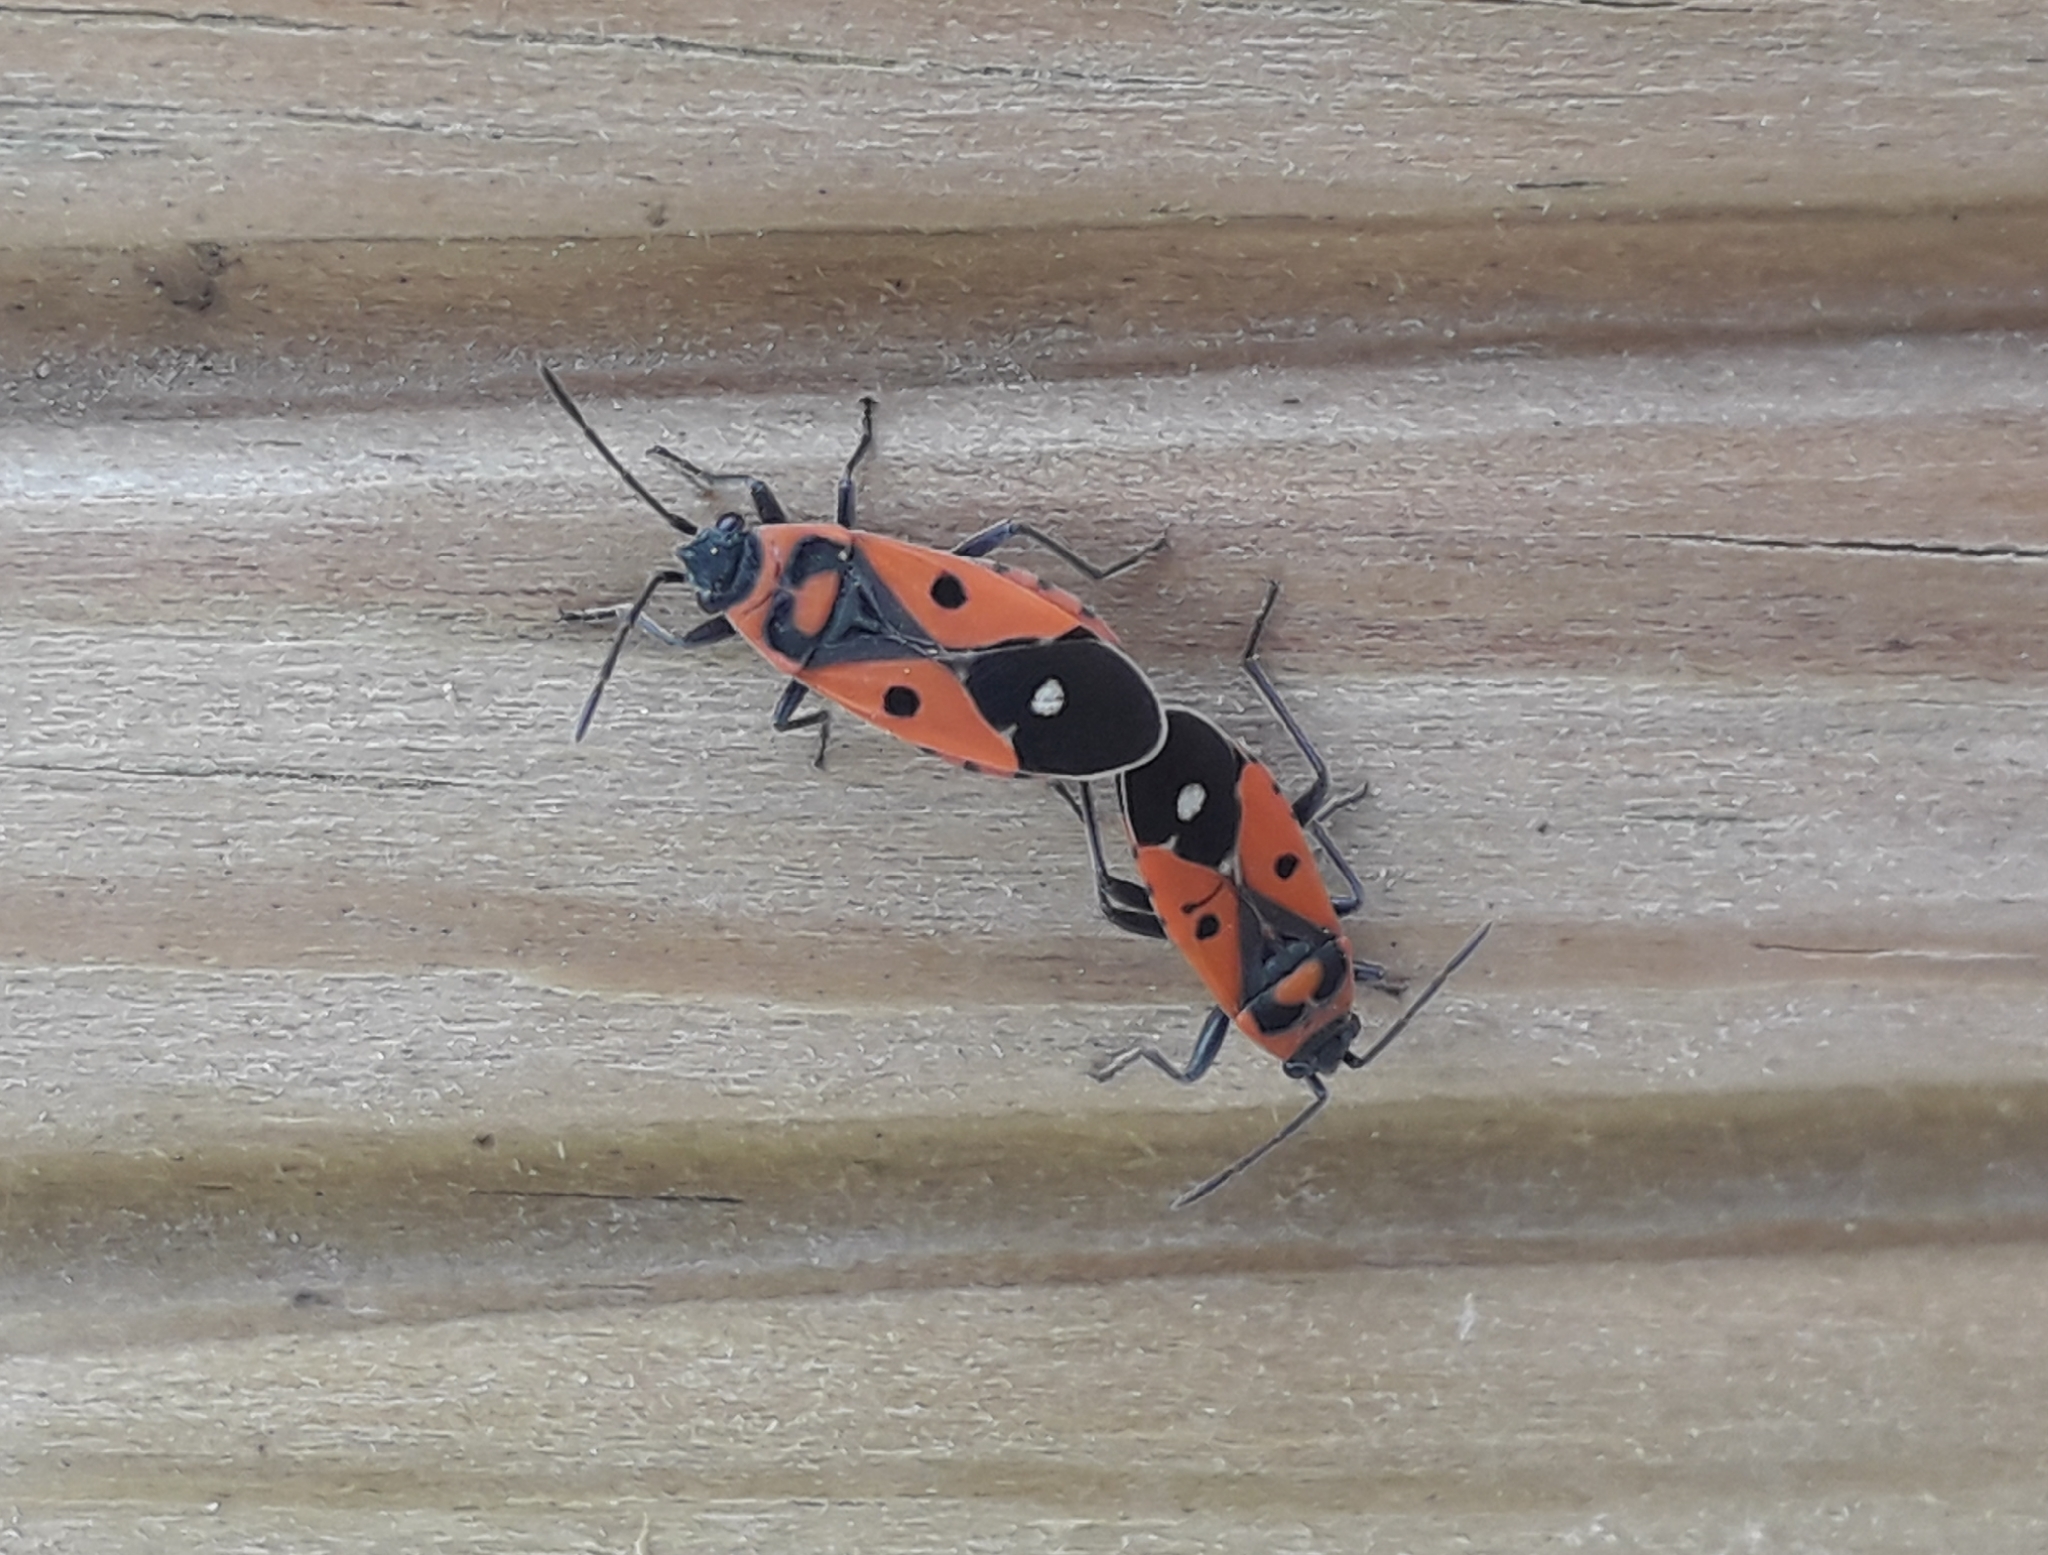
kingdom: Animalia
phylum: Arthropoda
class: Insecta
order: Hemiptera
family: Lygaeidae
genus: Melanocoryphus
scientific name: Melanocoryphus albomaculatus
